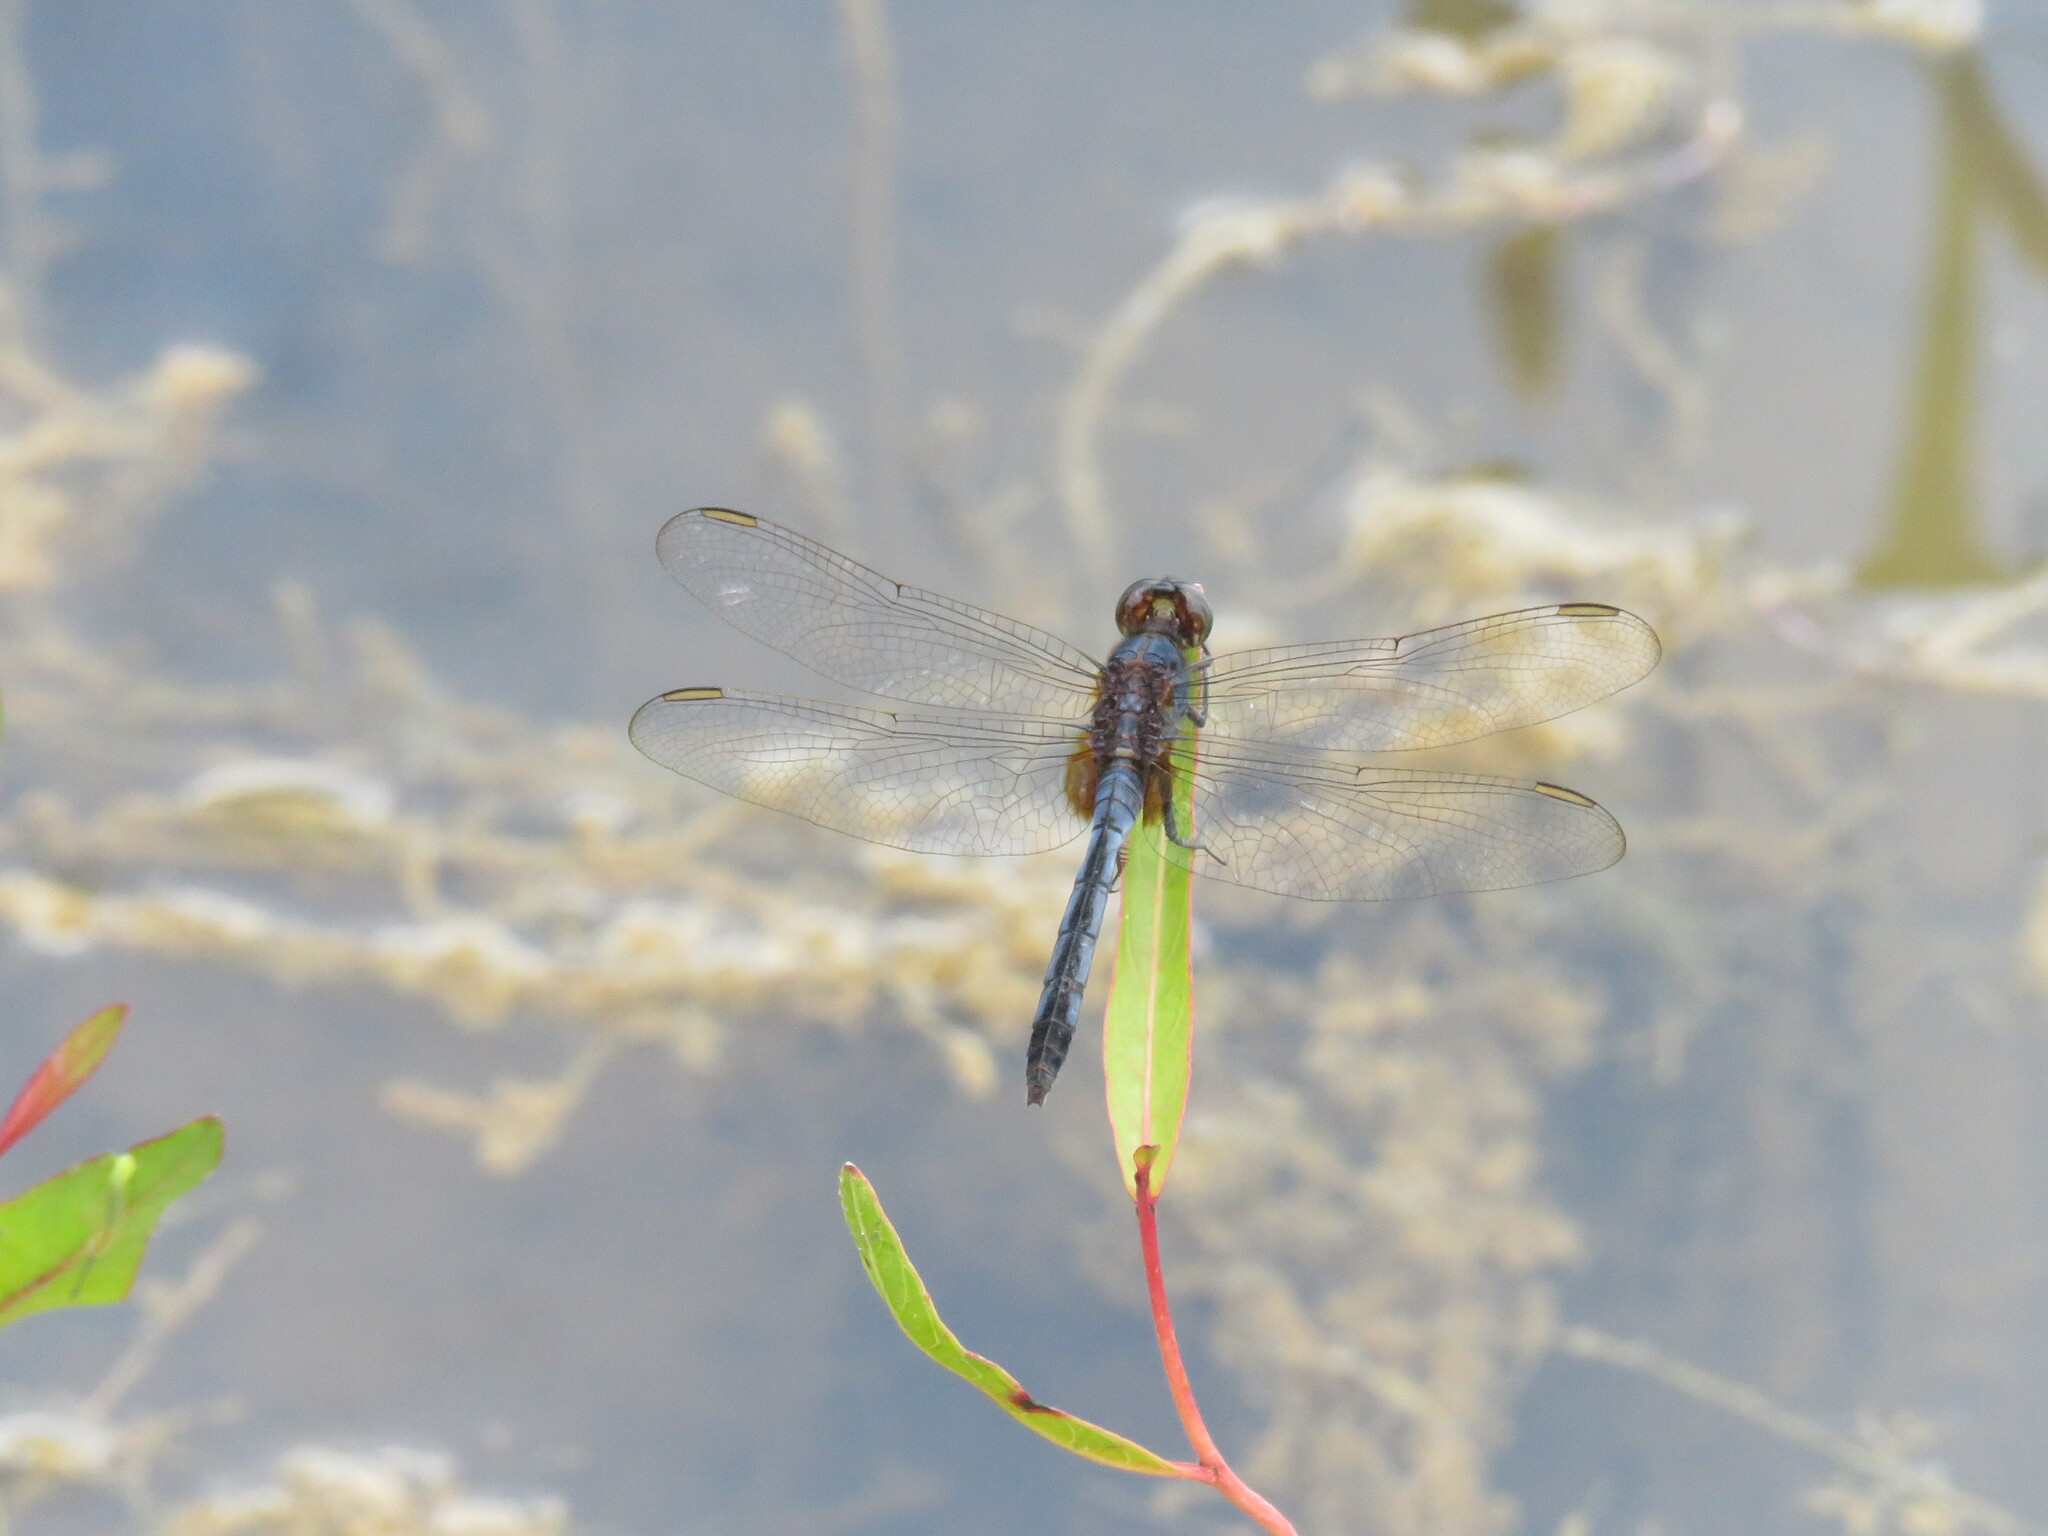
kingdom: Animalia
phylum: Arthropoda
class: Insecta
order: Odonata
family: Libellulidae
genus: Erythemis
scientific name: Erythemis credula
